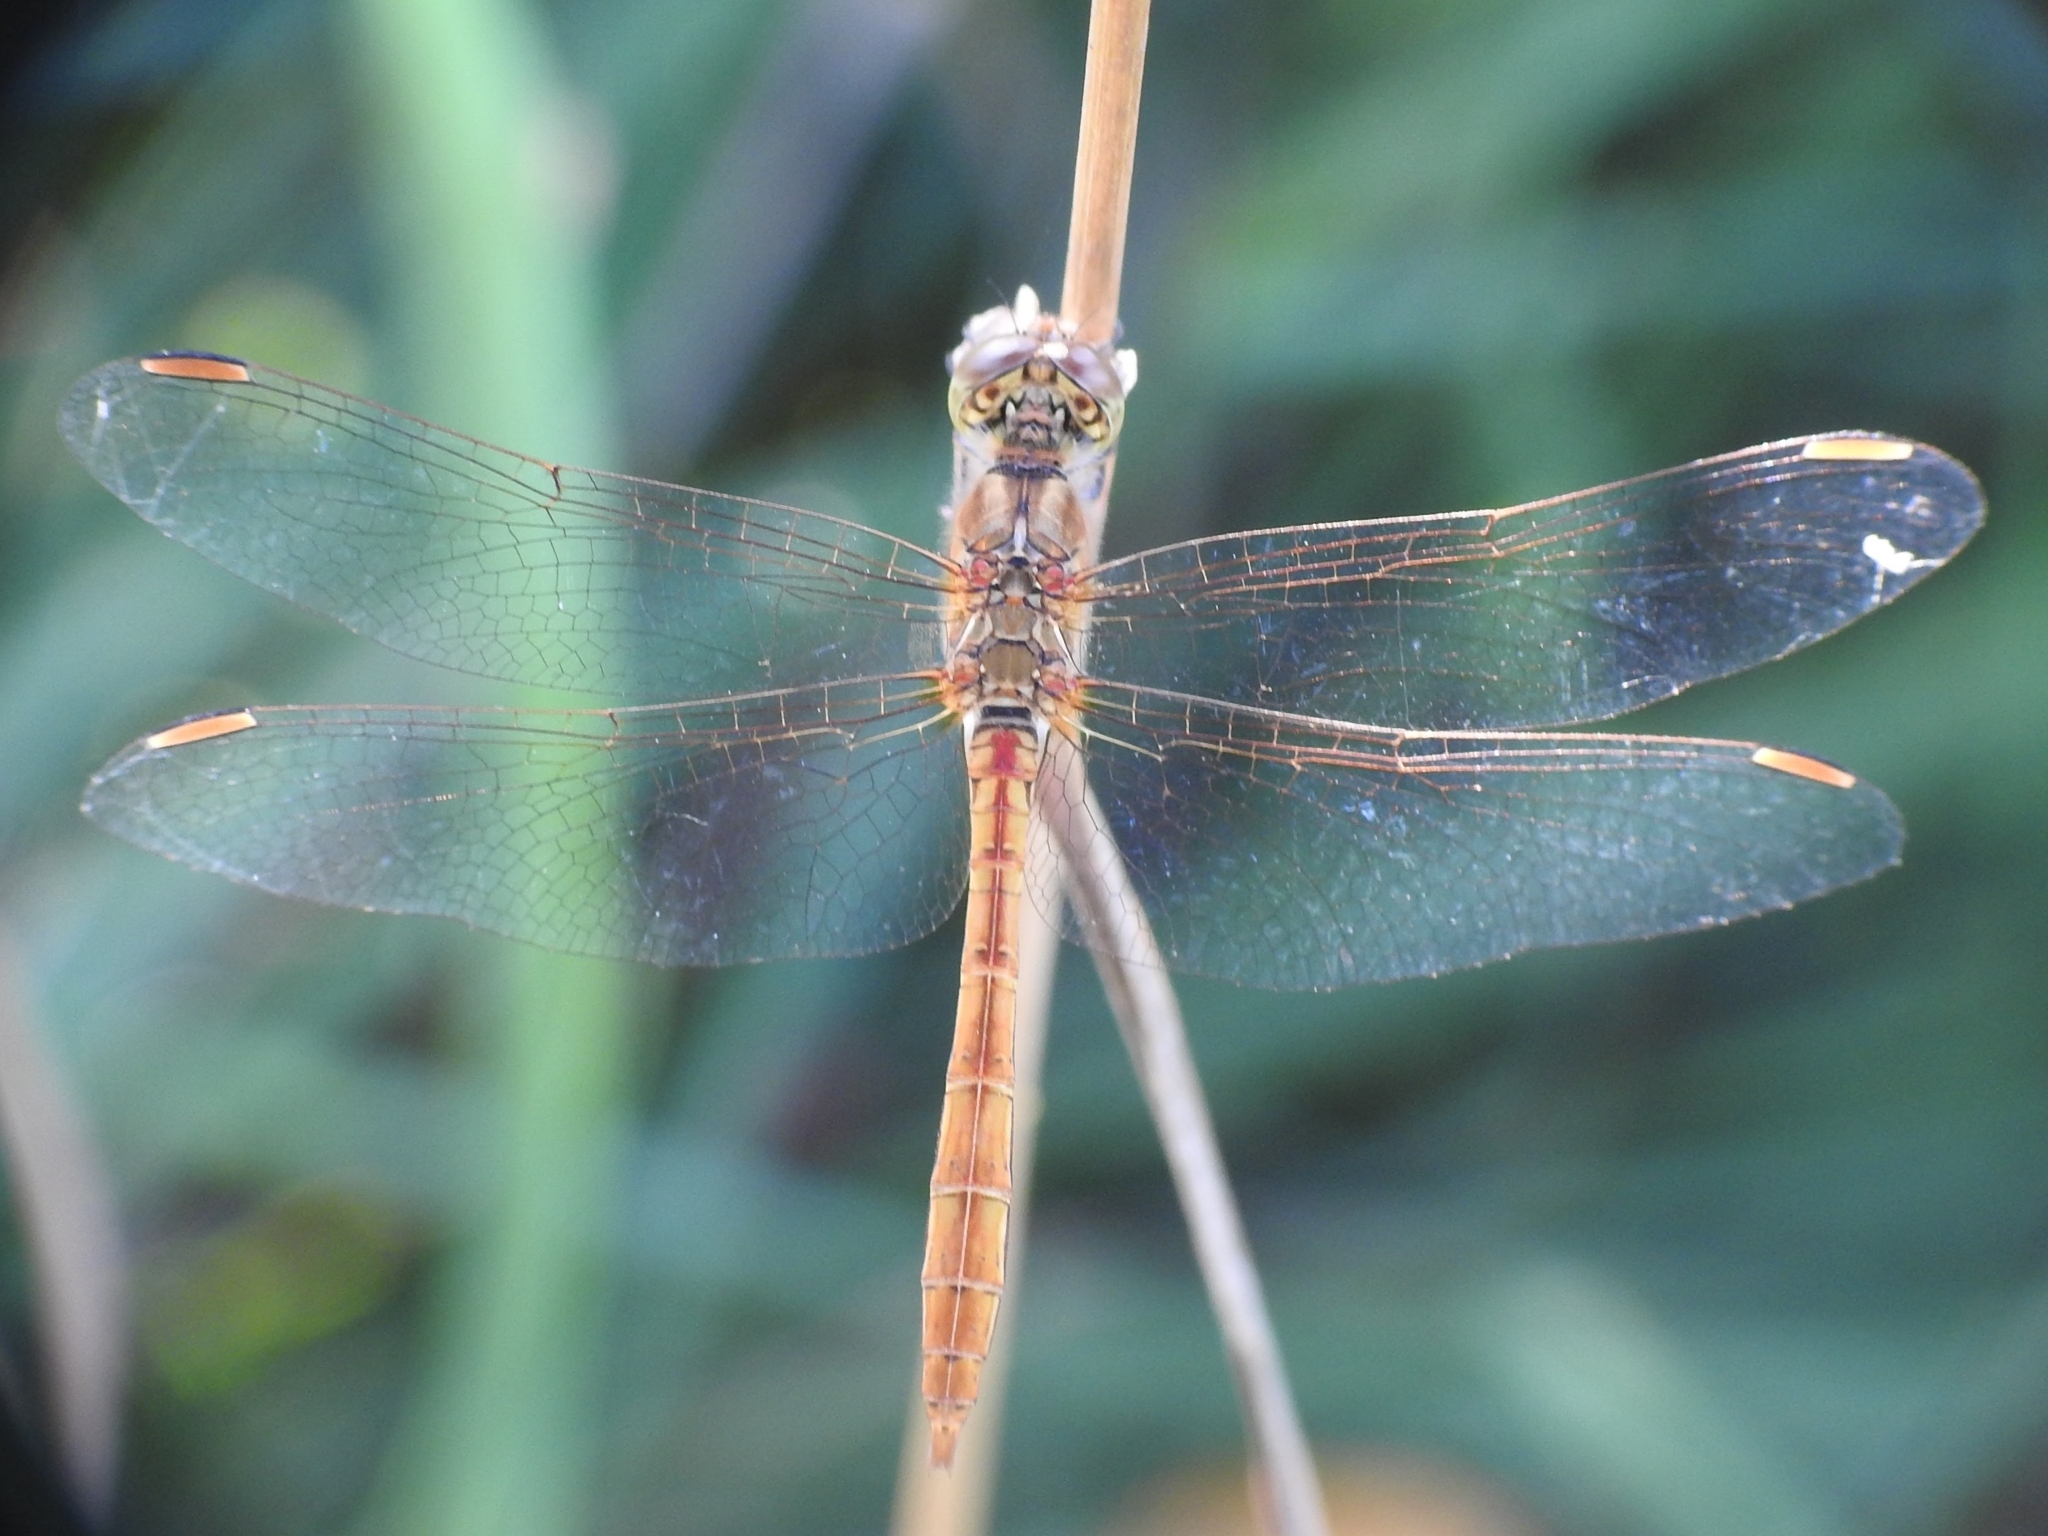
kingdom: Animalia
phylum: Arthropoda
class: Insecta
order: Odonata
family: Libellulidae
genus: Sympetrum
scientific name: Sympetrum meridionale
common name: Southern darter
